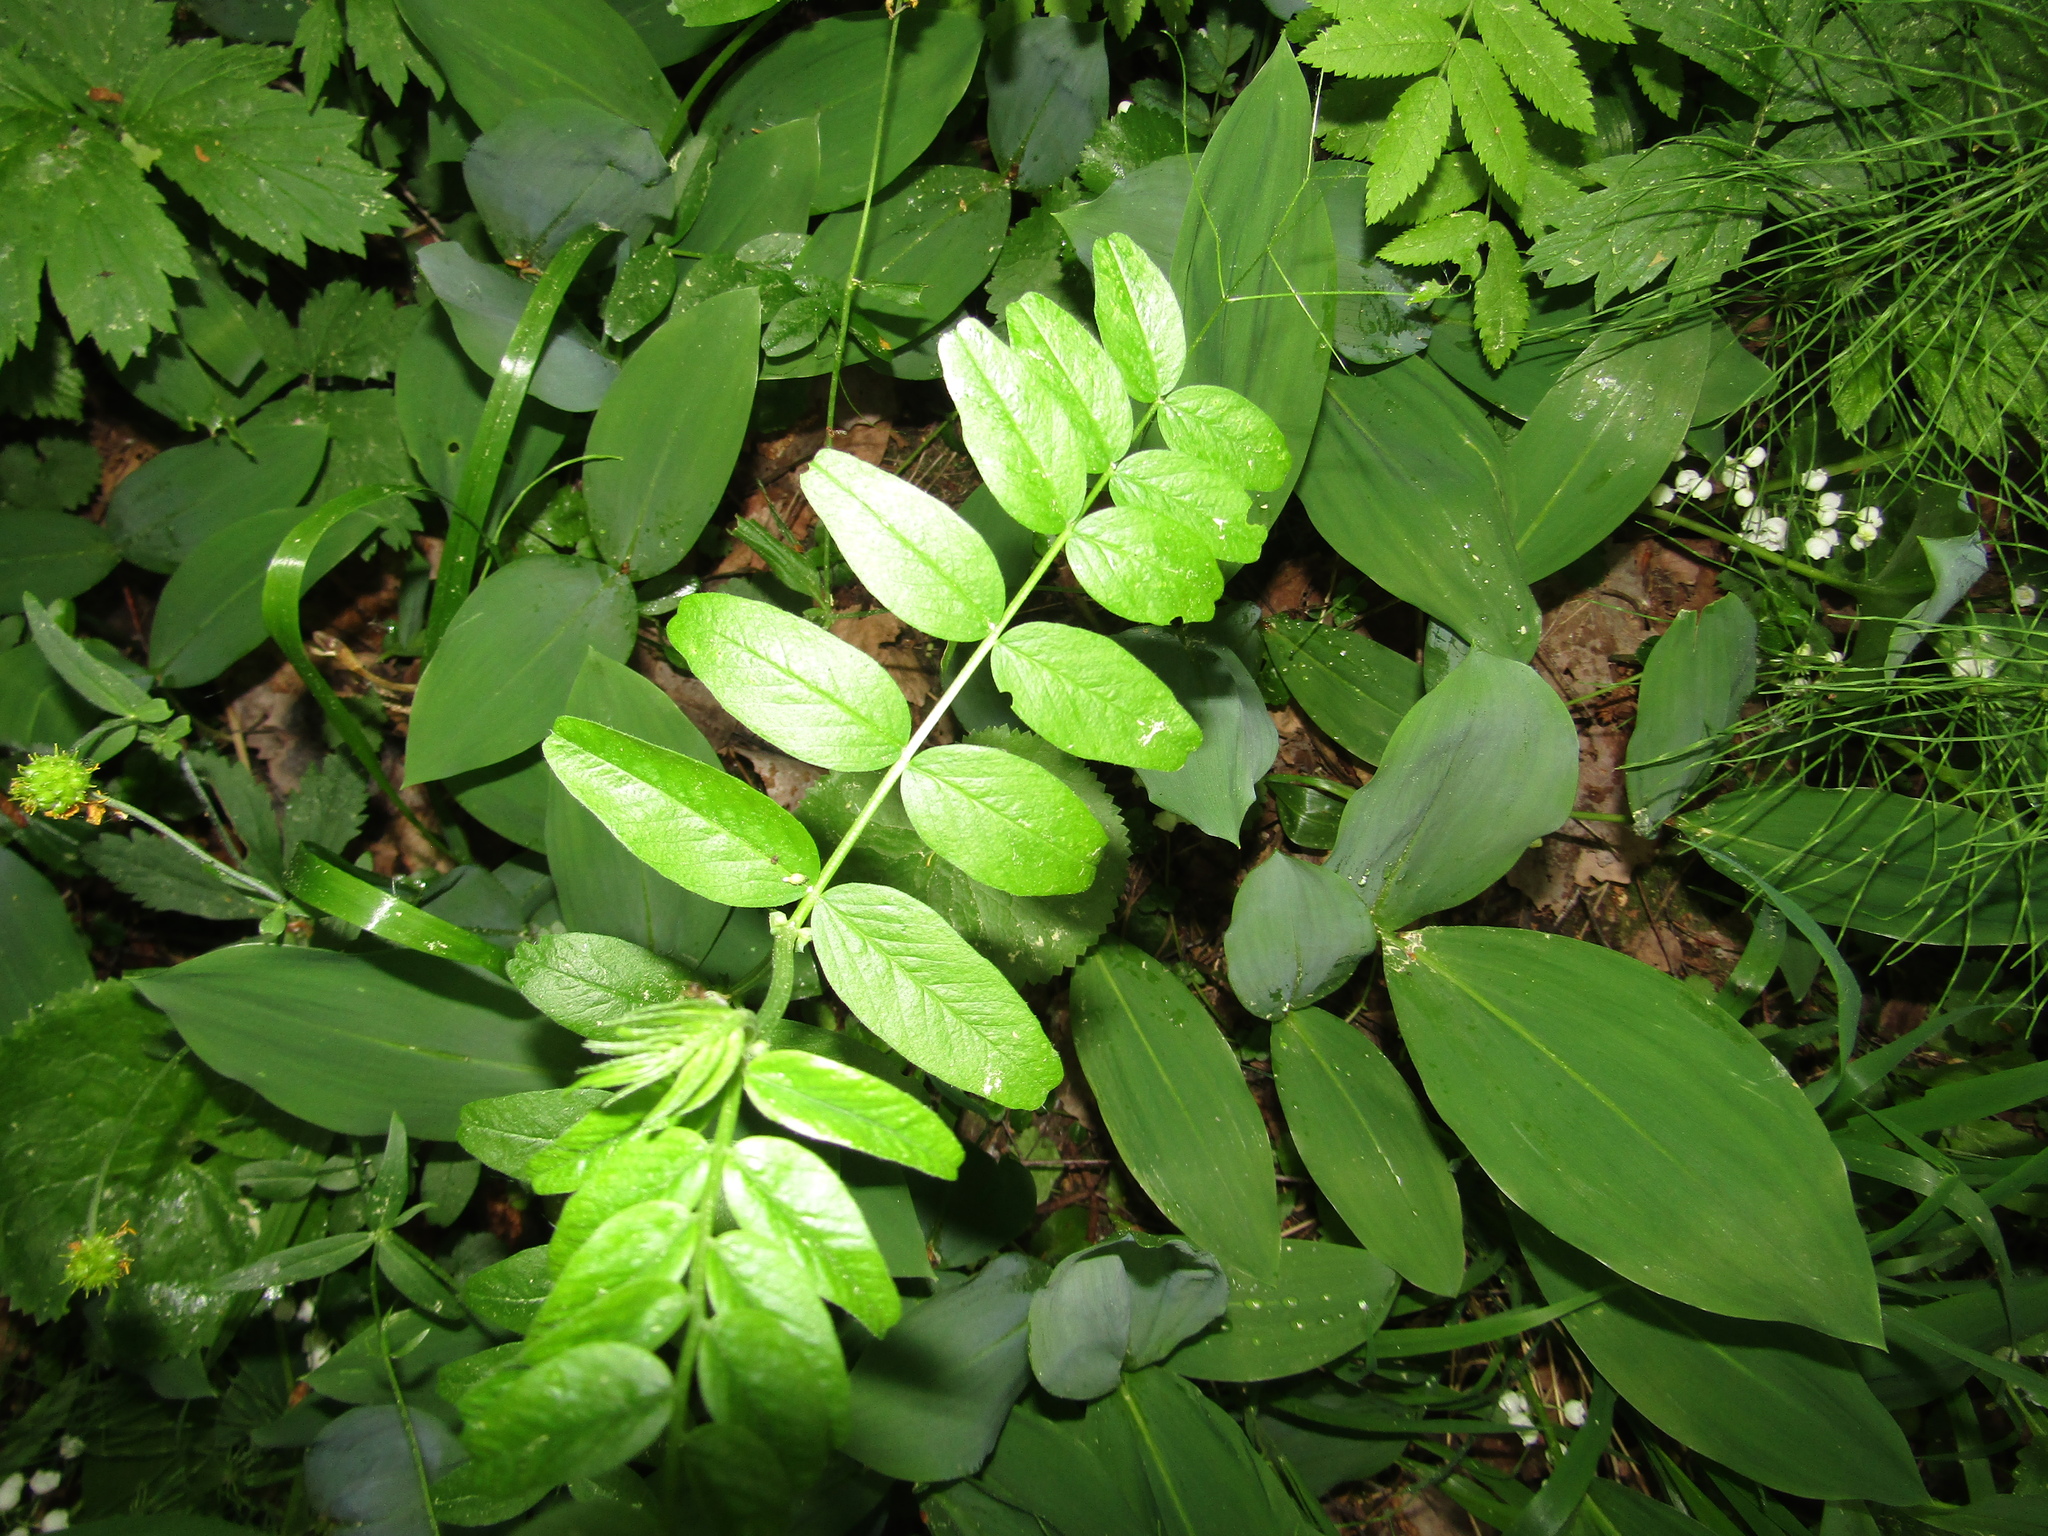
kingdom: Plantae
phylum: Tracheophyta
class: Magnoliopsida
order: Fabales
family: Fabaceae
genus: Vicia
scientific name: Vicia sepium
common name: Bush vetch
